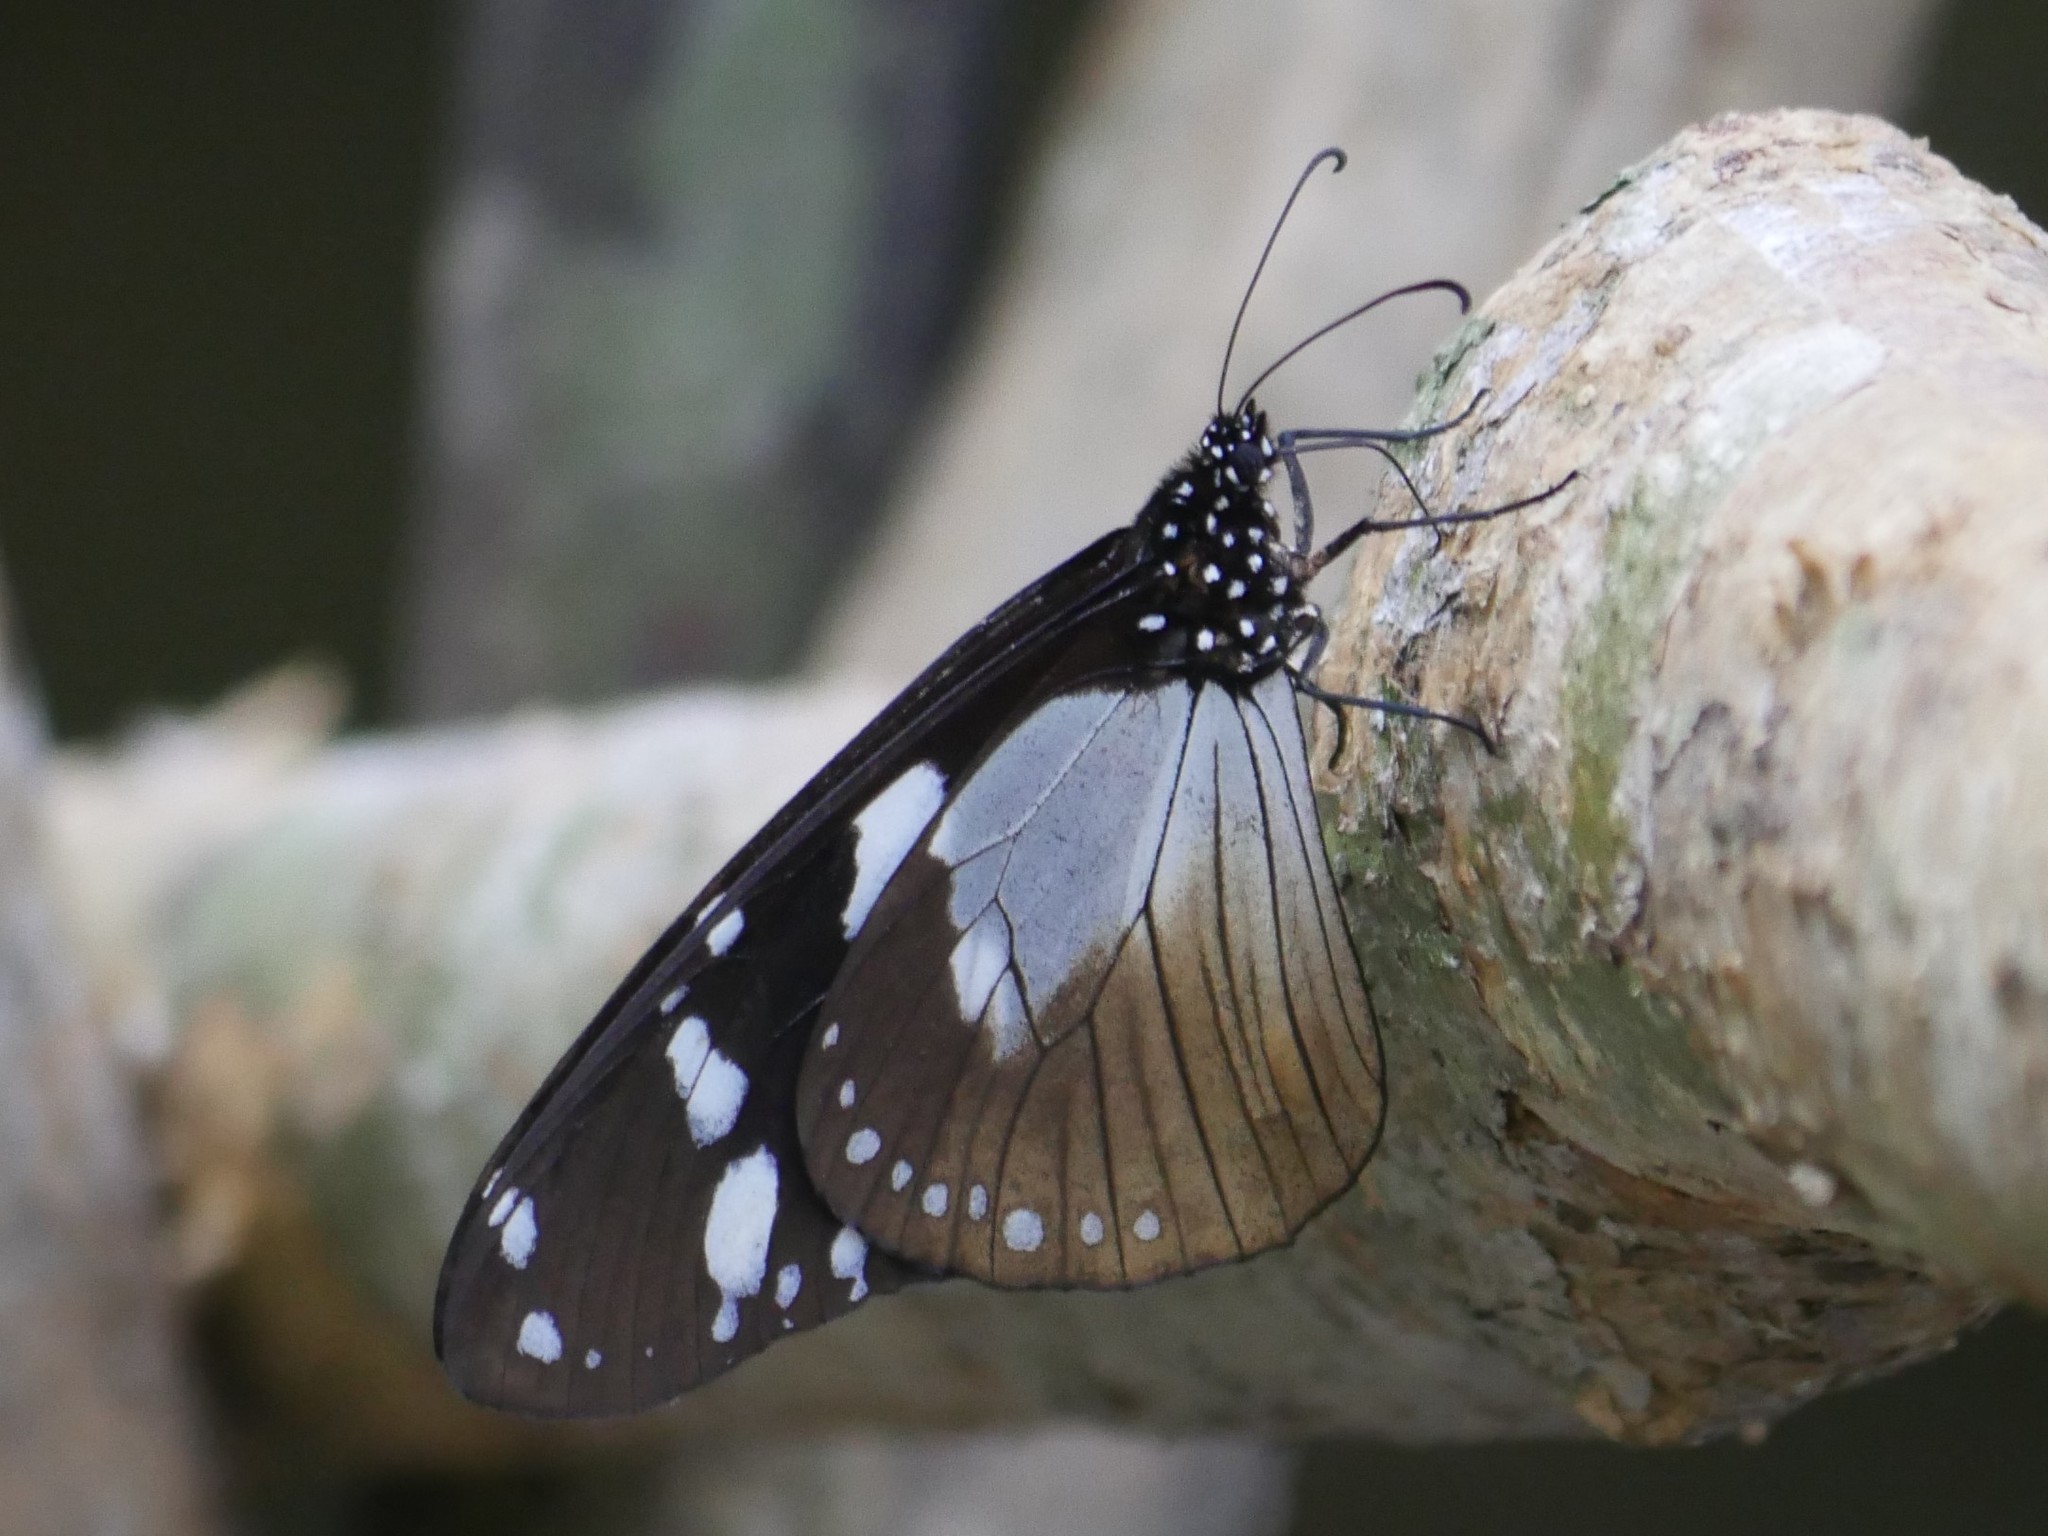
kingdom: Animalia
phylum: Arthropoda
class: Insecta
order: Lepidoptera
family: Nymphalidae
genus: Amauris
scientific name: Amauris tartarea
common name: Monk
